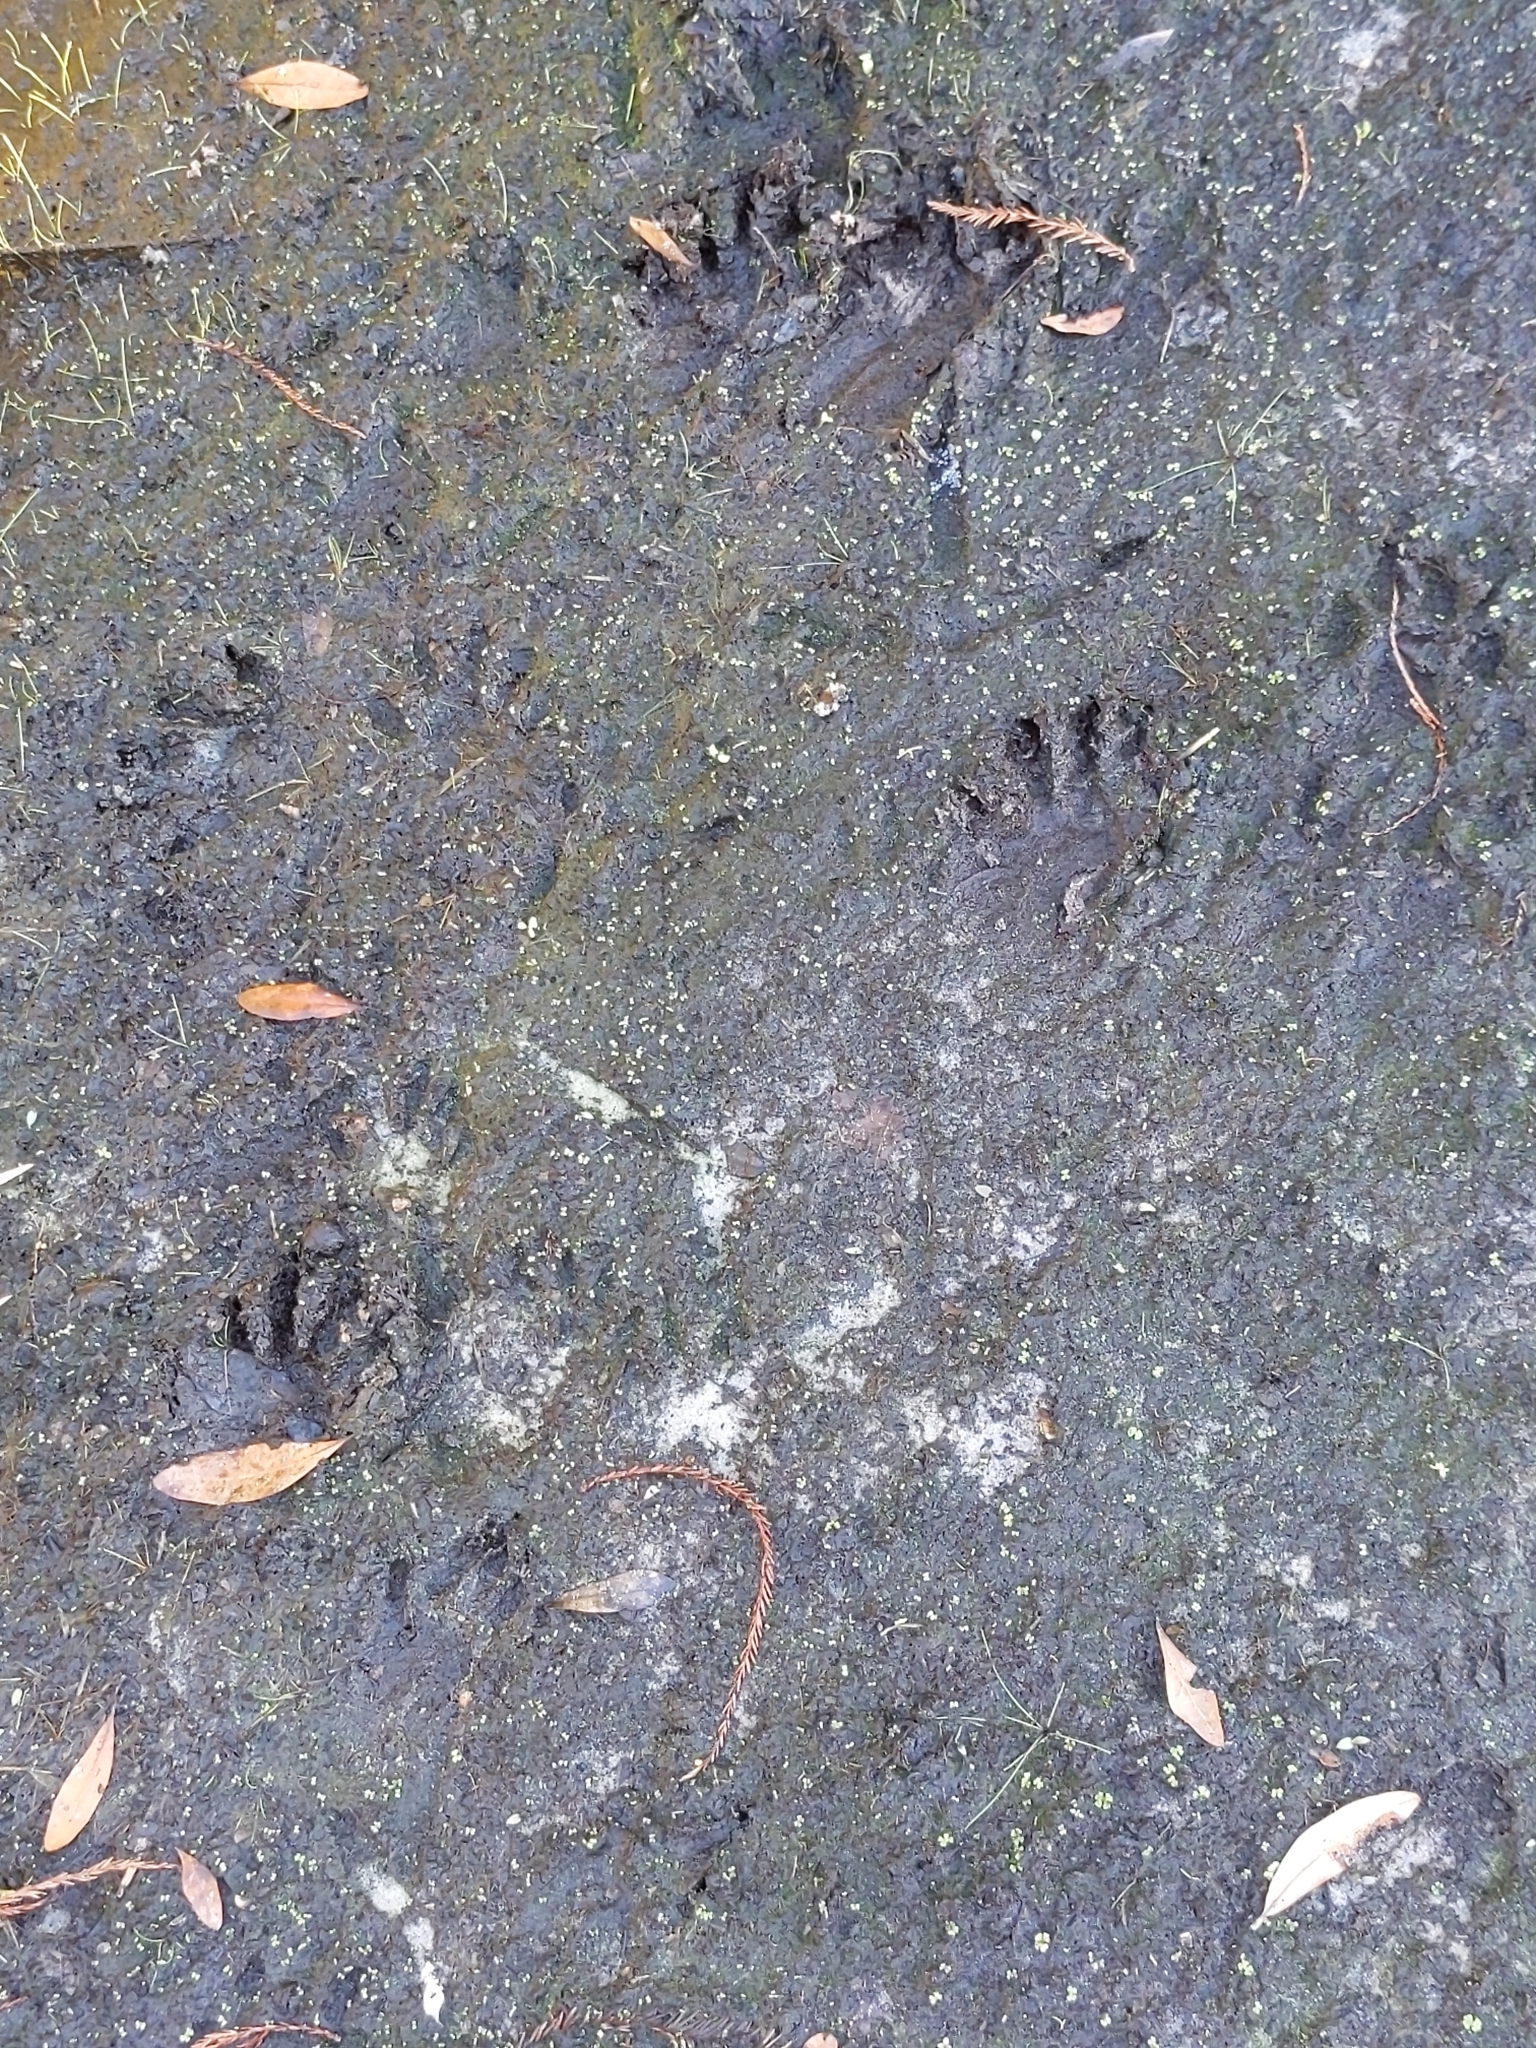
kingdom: Animalia
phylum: Chordata
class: Mammalia
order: Carnivora
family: Procyonidae
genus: Procyon
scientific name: Procyon lotor
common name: Raccoon
